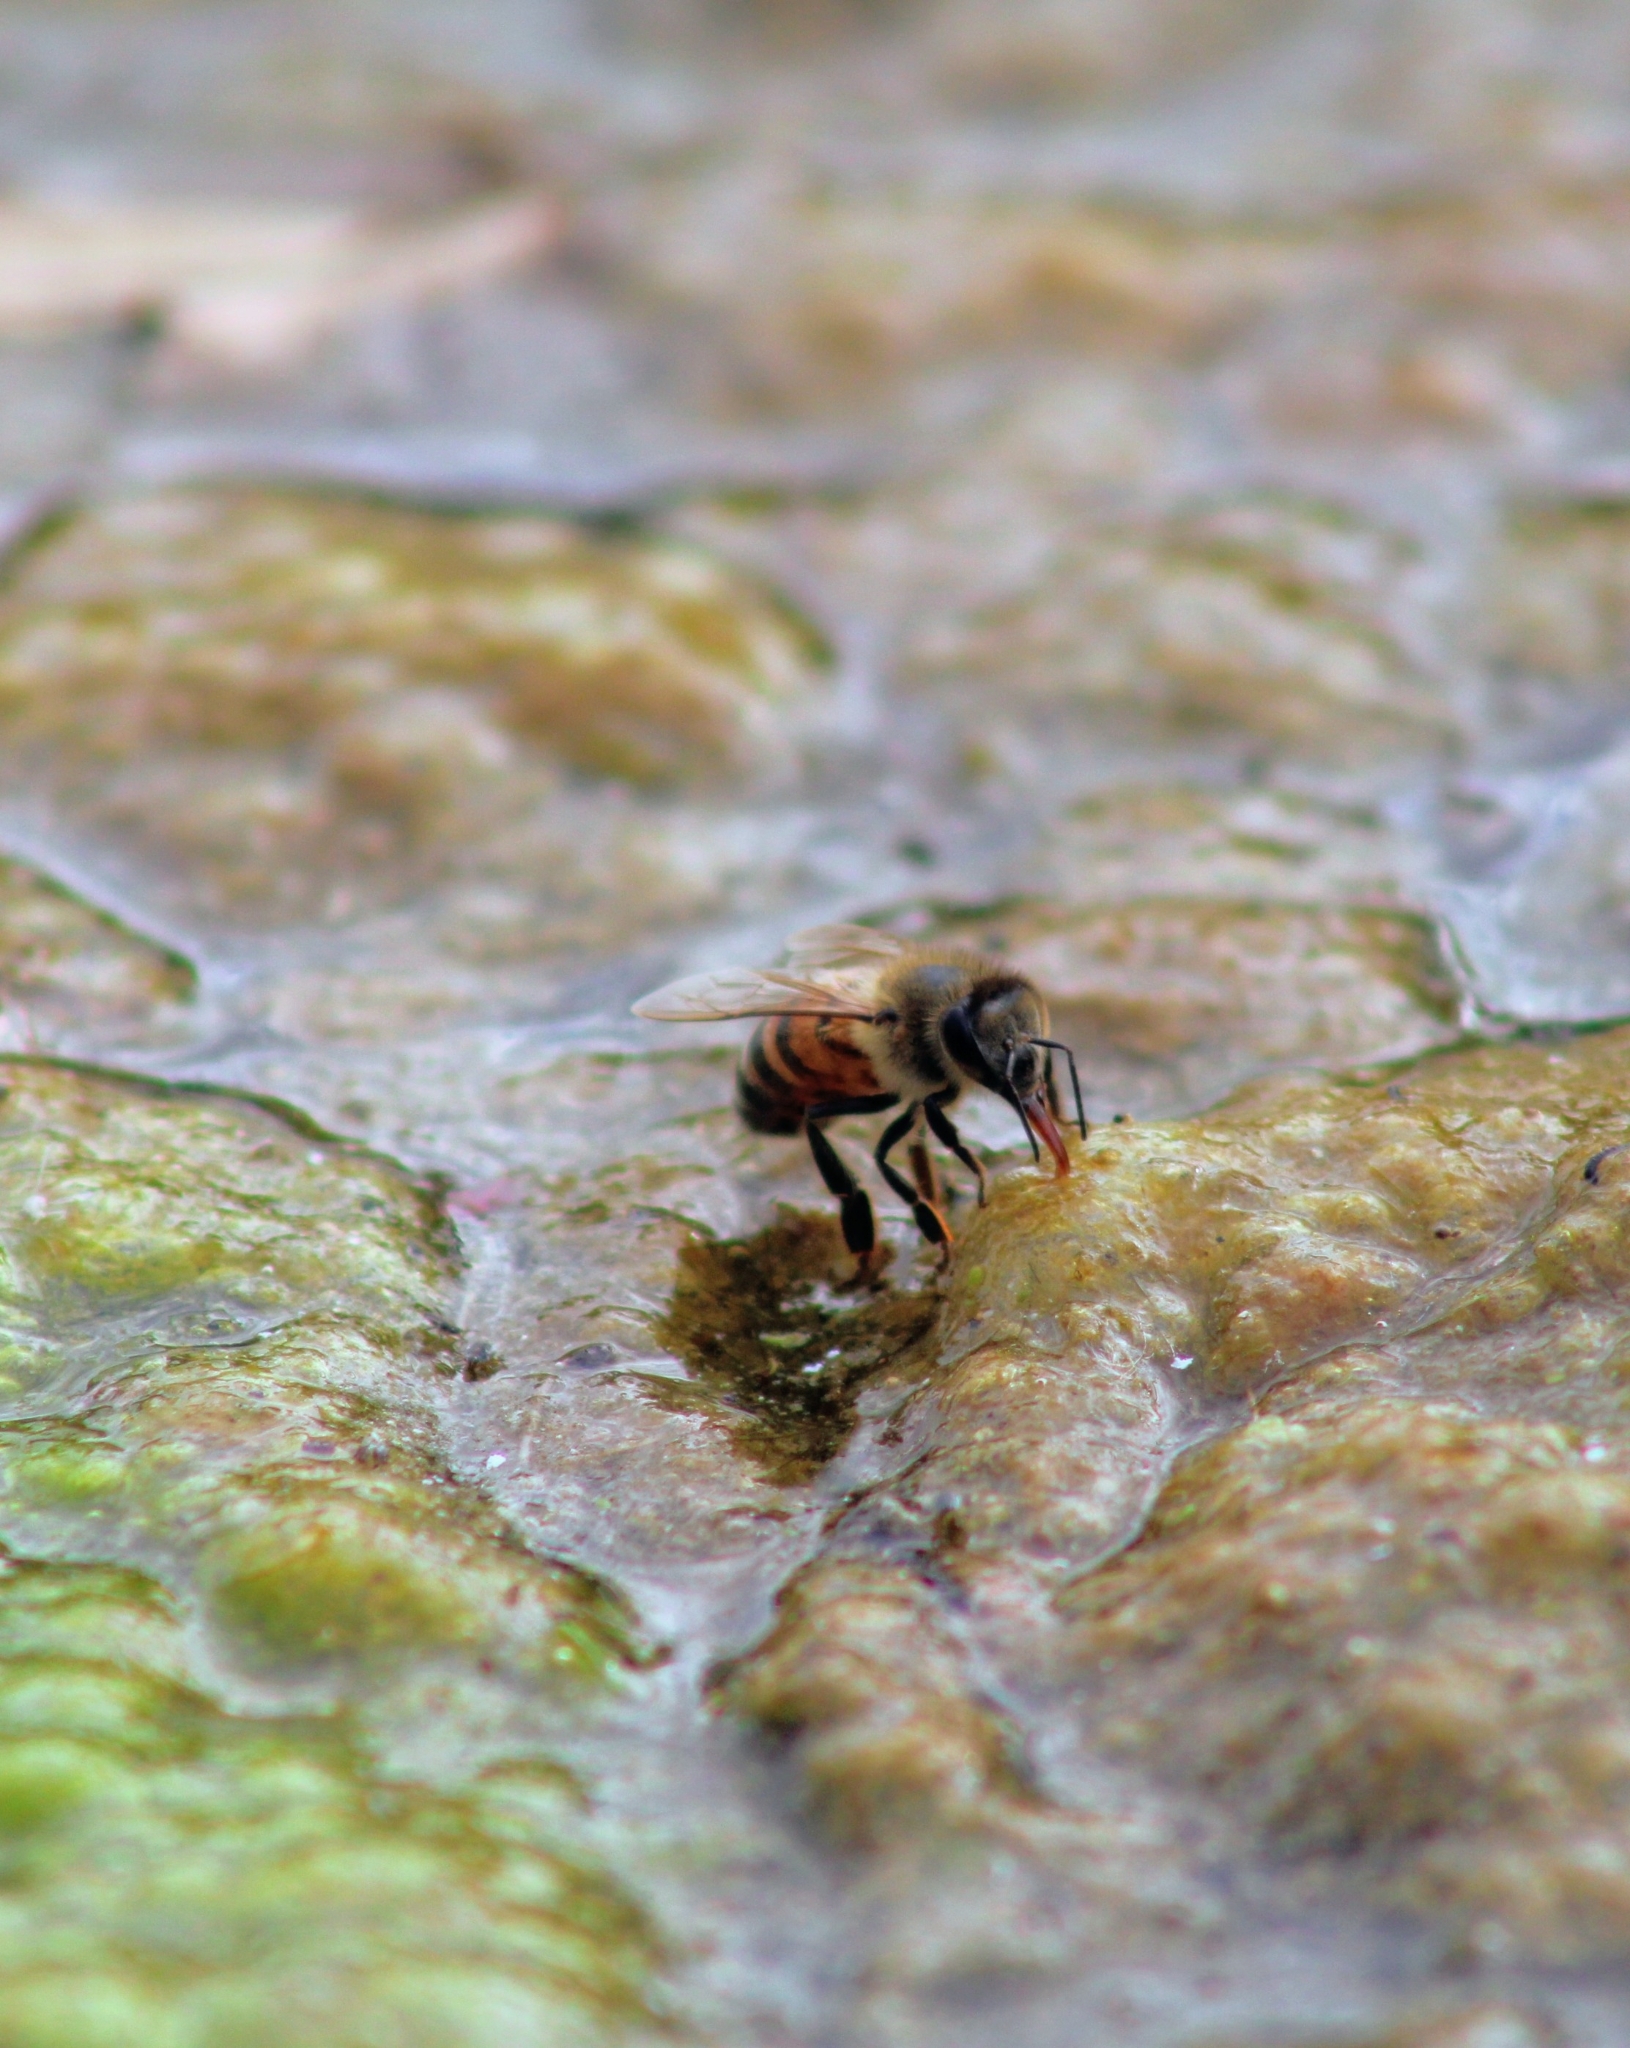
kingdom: Animalia
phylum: Arthropoda
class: Insecta
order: Hymenoptera
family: Apidae
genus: Apis
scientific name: Apis mellifera
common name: Honey bee
